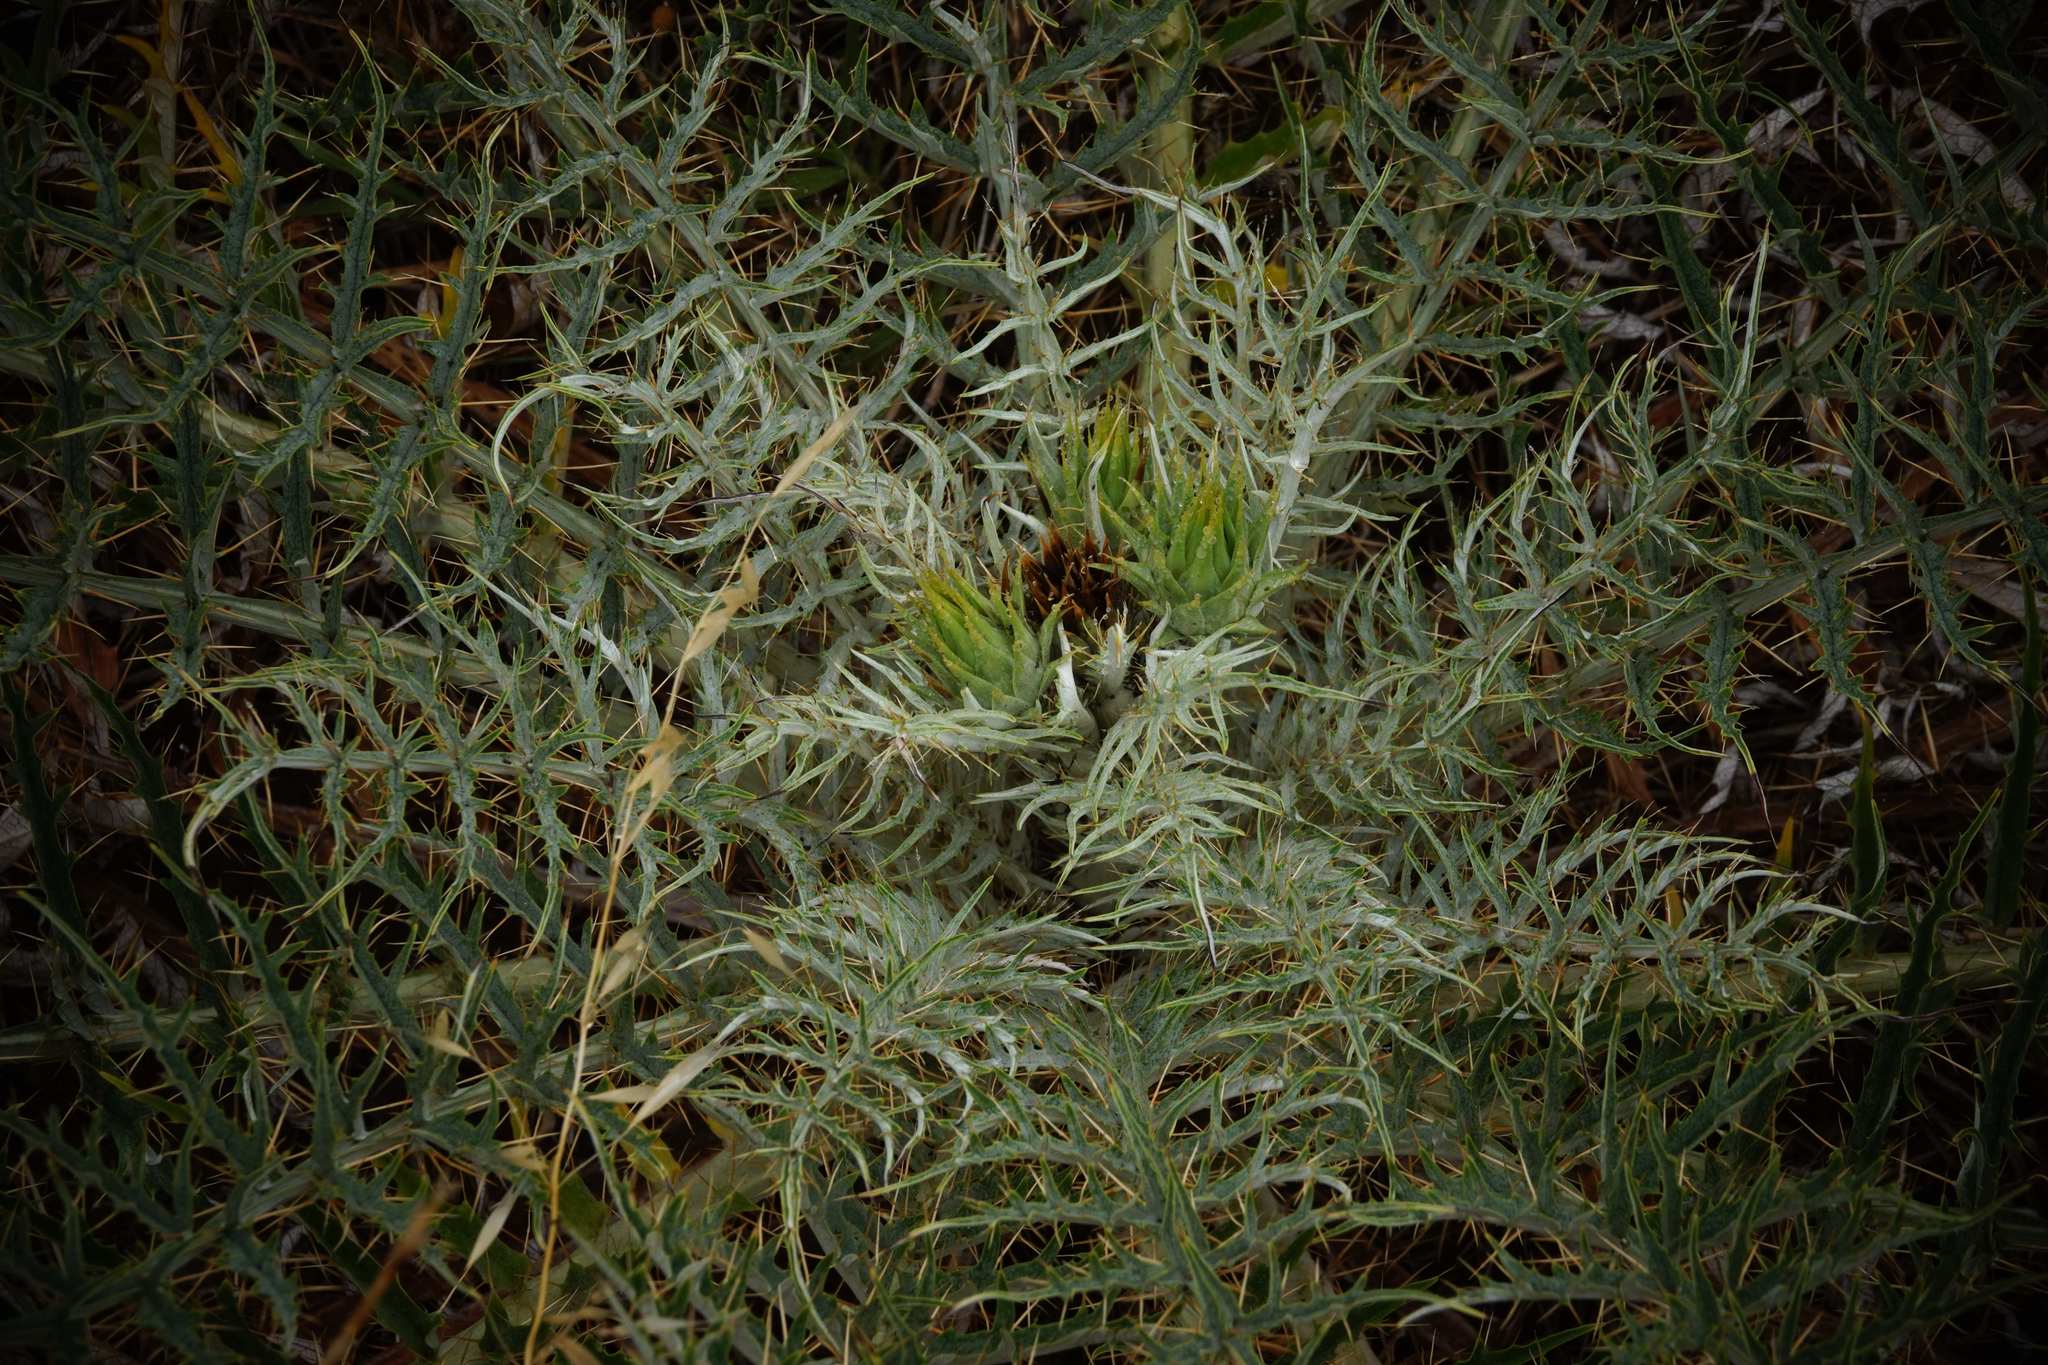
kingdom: Plantae
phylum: Tracheophyta
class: Magnoliopsida
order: Asterales
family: Asteraceae
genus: Cynara
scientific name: Cynara cardunculus
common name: Globe artichoke
